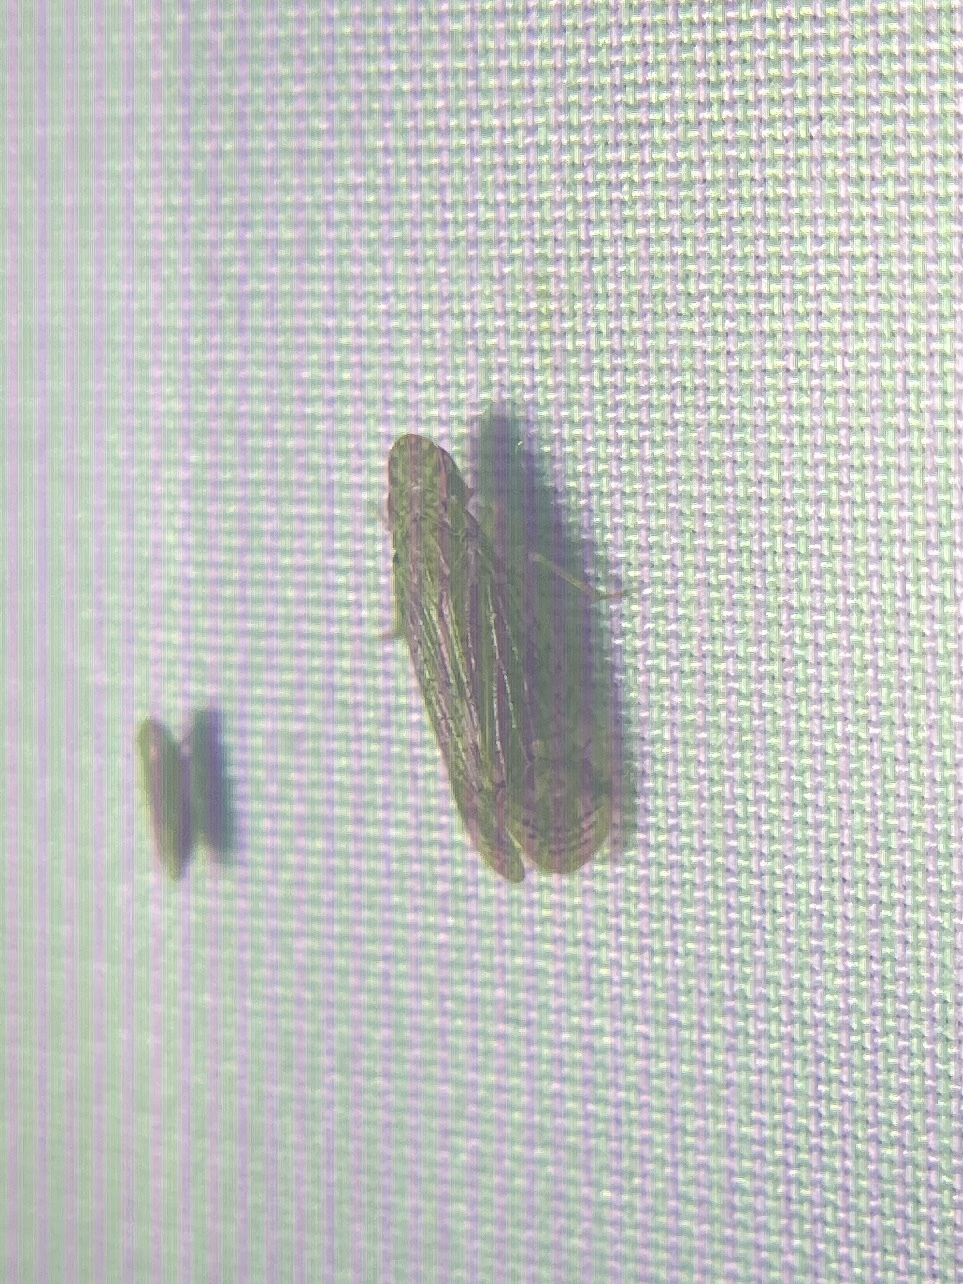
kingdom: Animalia
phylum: Arthropoda
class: Insecta
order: Hemiptera
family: Tropiduchidae
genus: Pelitropis
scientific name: Pelitropis rotulata
